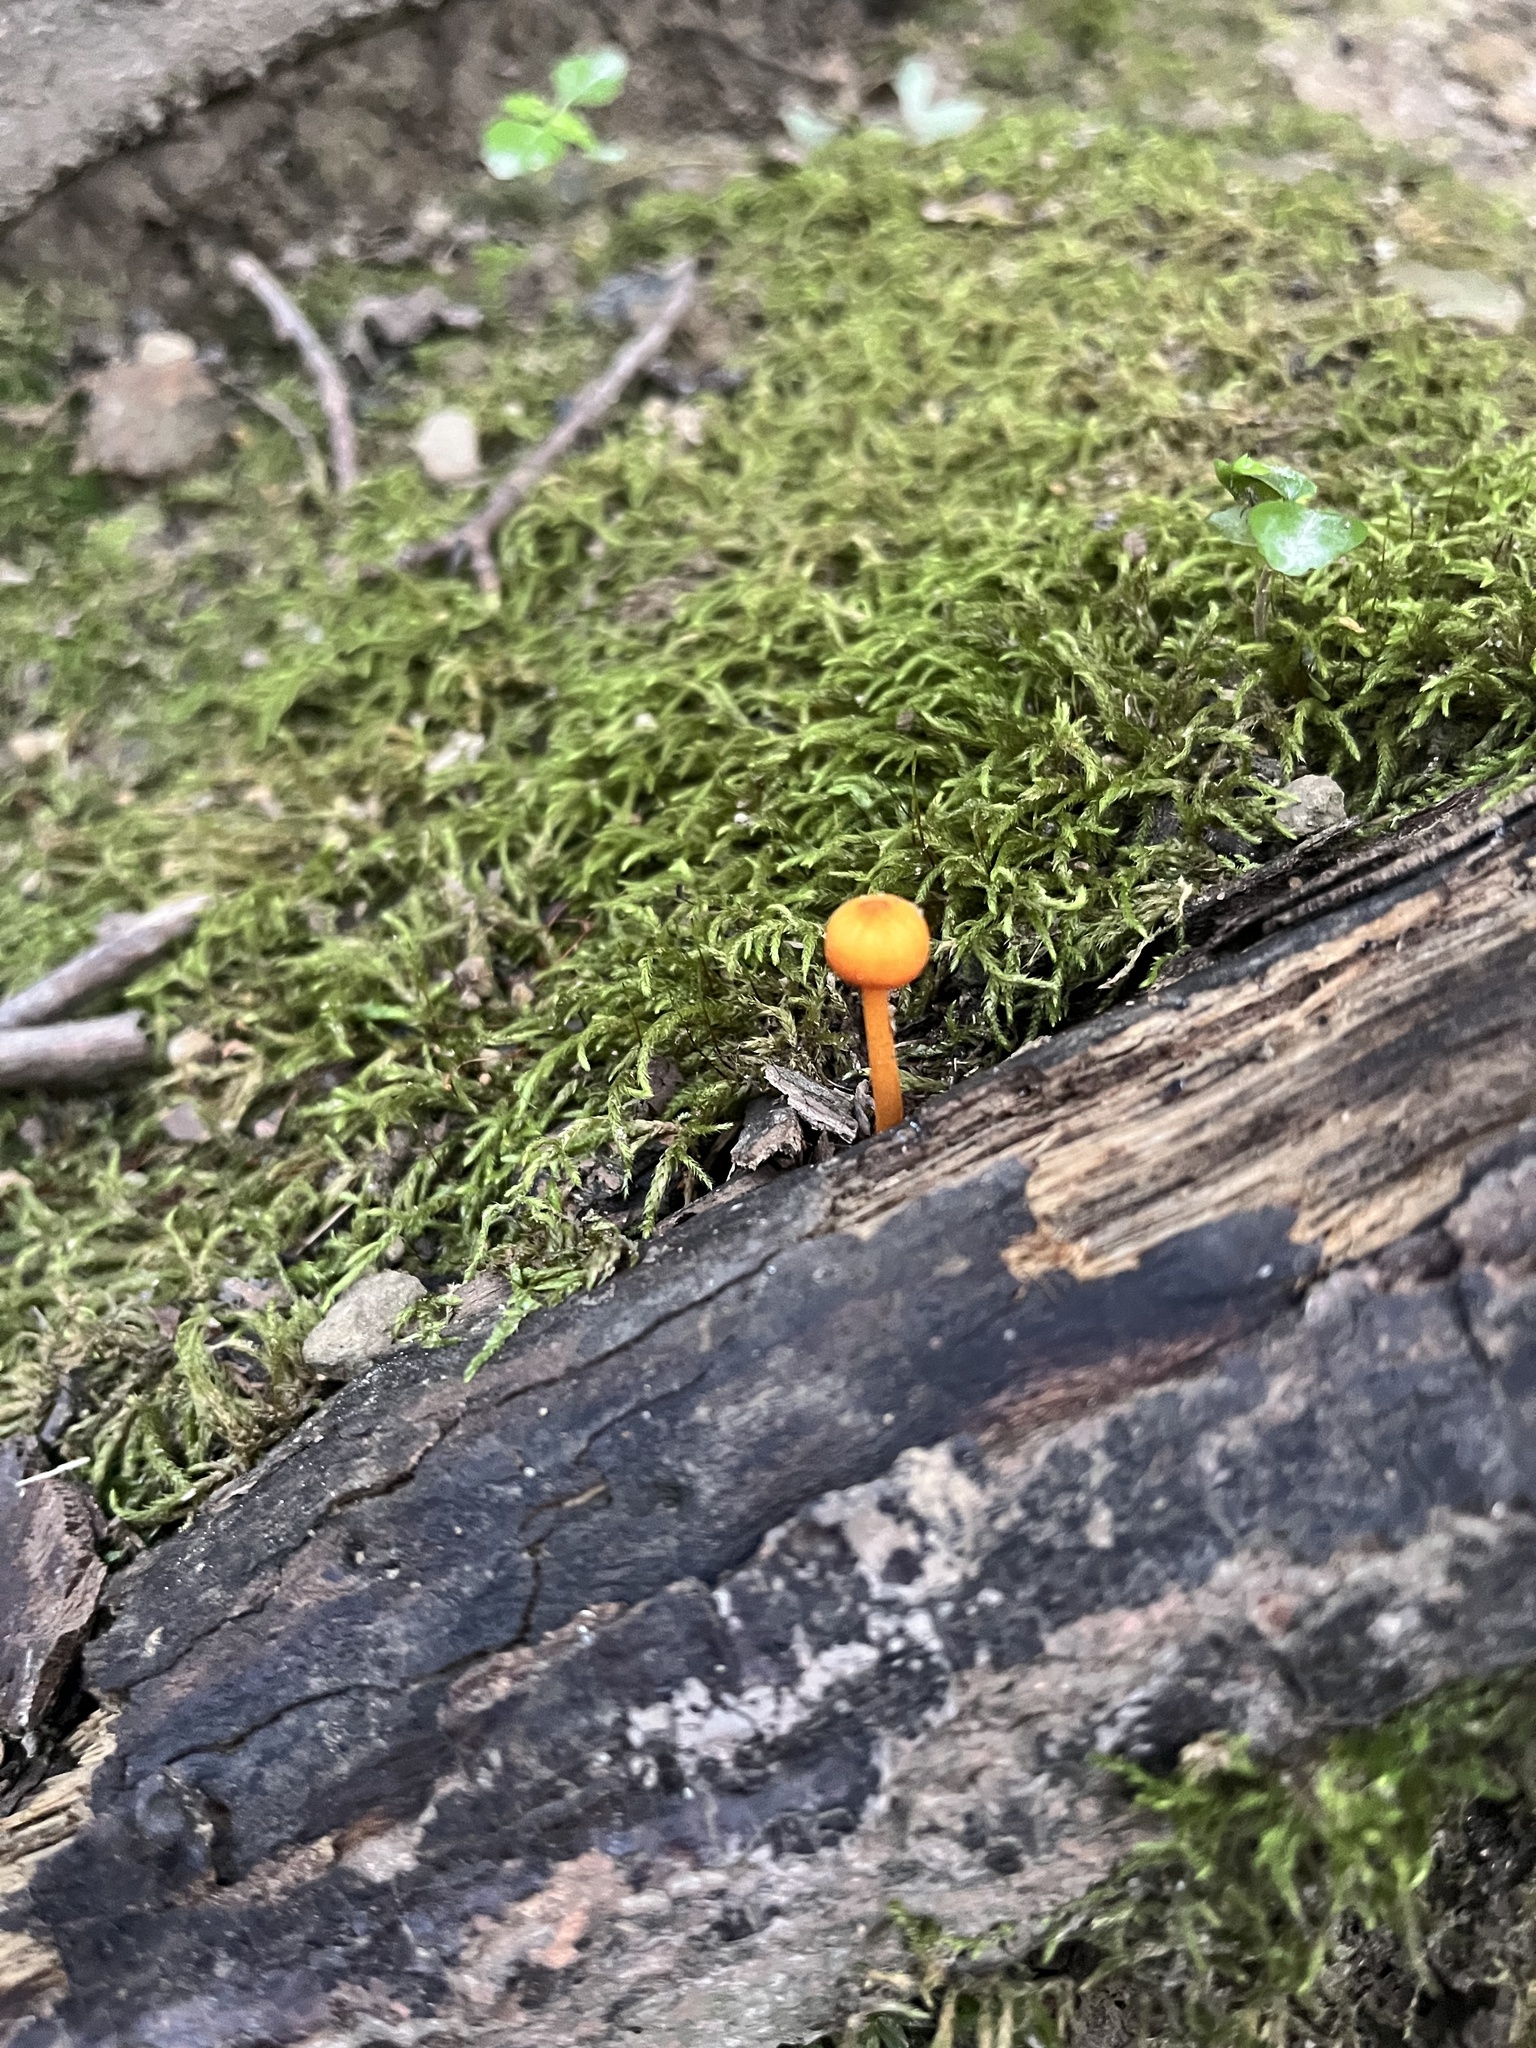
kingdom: Fungi
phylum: Basidiomycota
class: Agaricomycetes
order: Agaricales
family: Mycenaceae
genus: Mycena
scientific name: Mycena leaiana
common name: Orange mycena
